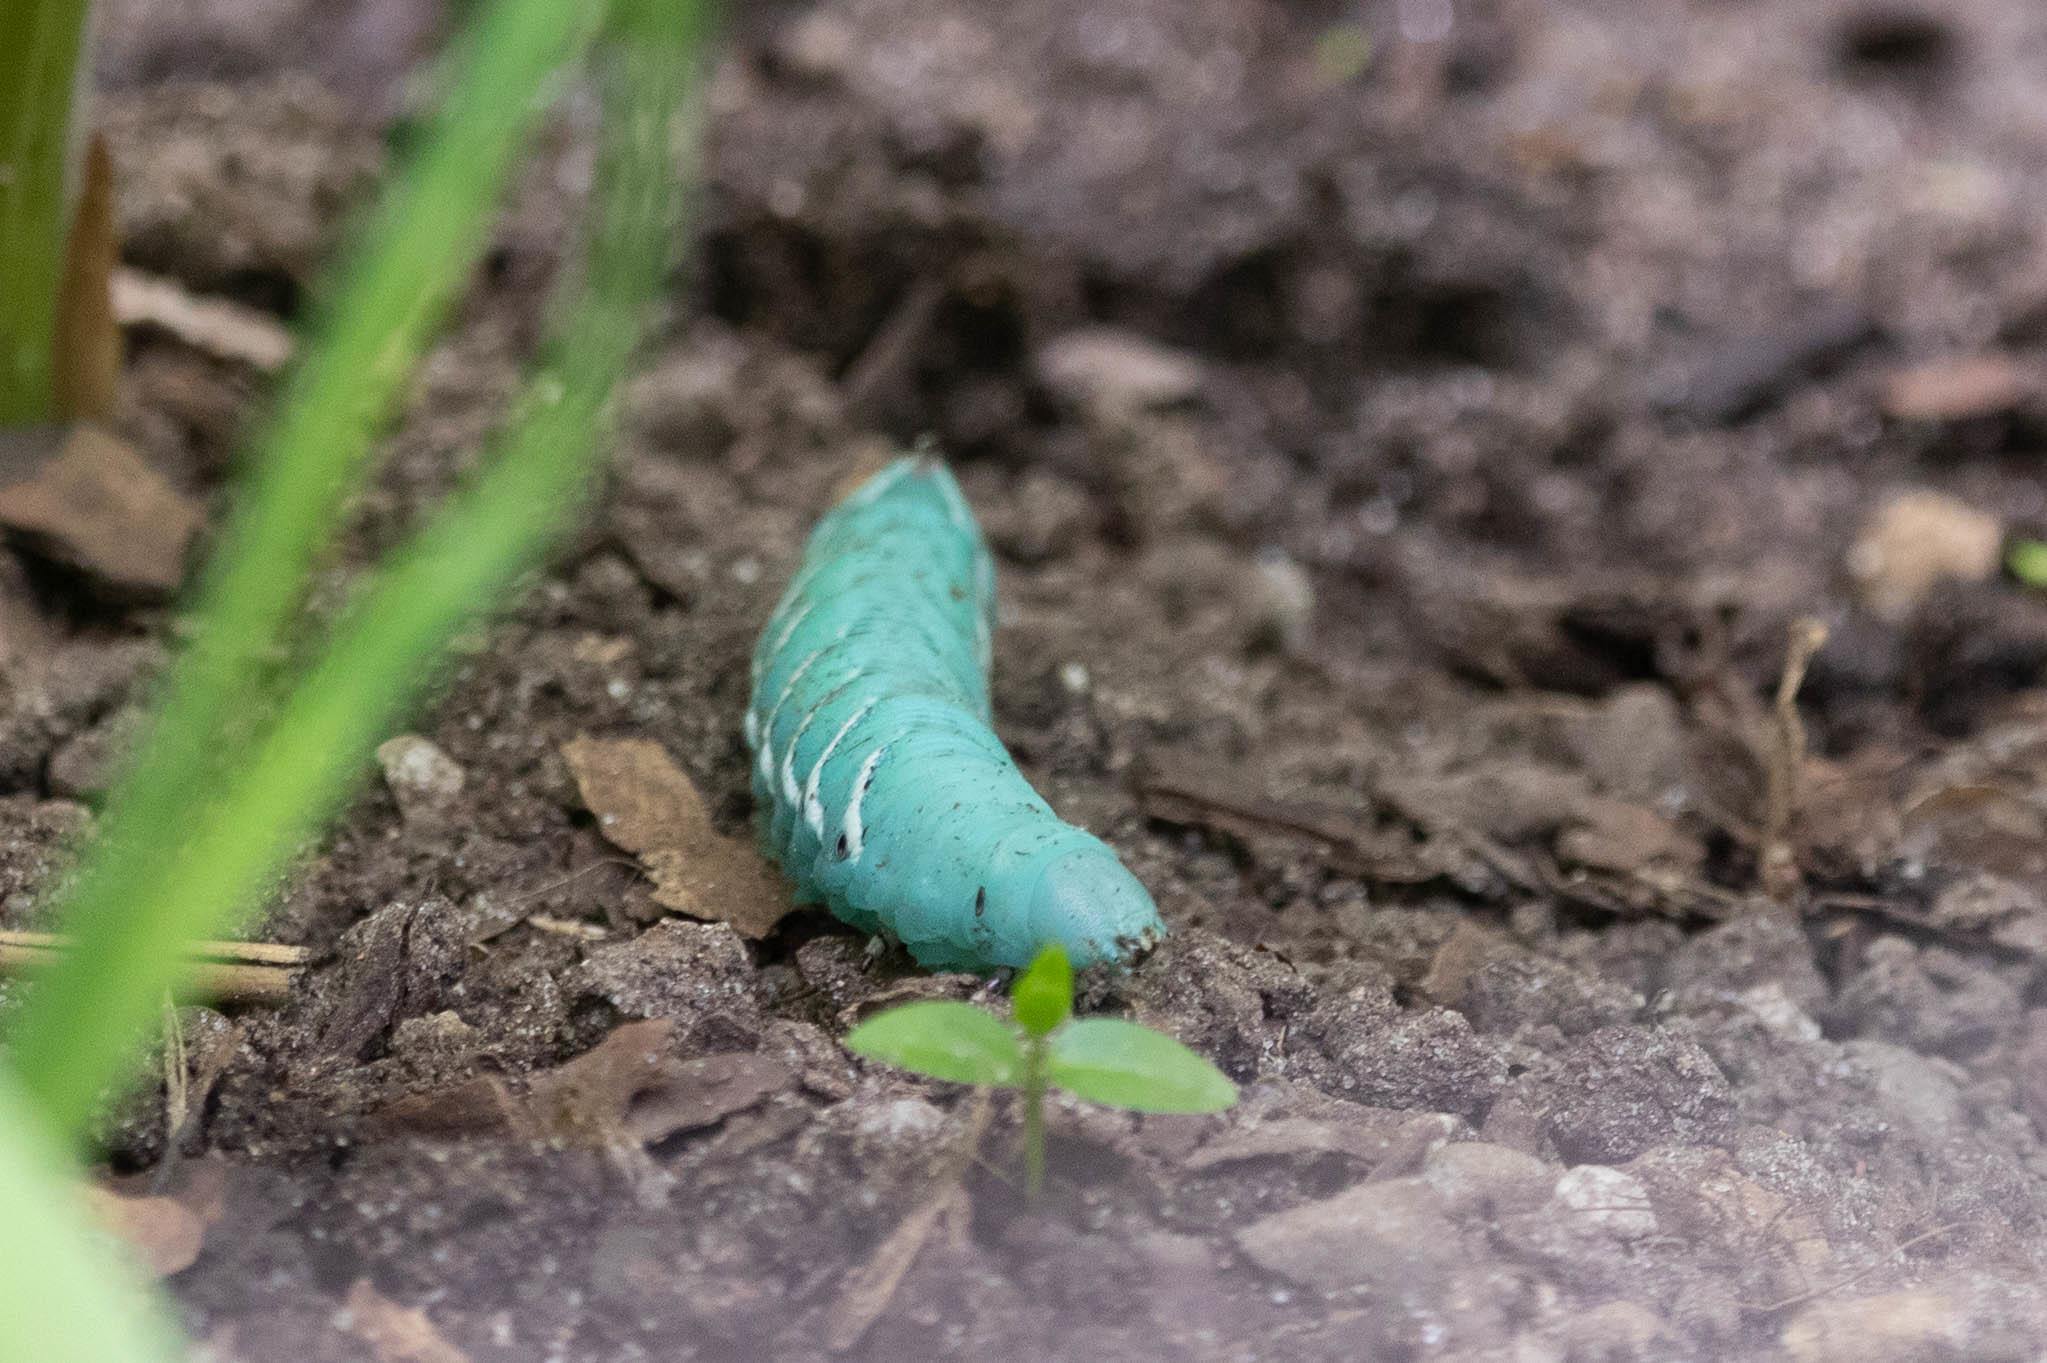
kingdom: Animalia
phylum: Arthropoda
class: Insecta
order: Lepidoptera
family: Sphingidae
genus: Manduca
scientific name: Manduca sexta
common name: Carolina sphinx
